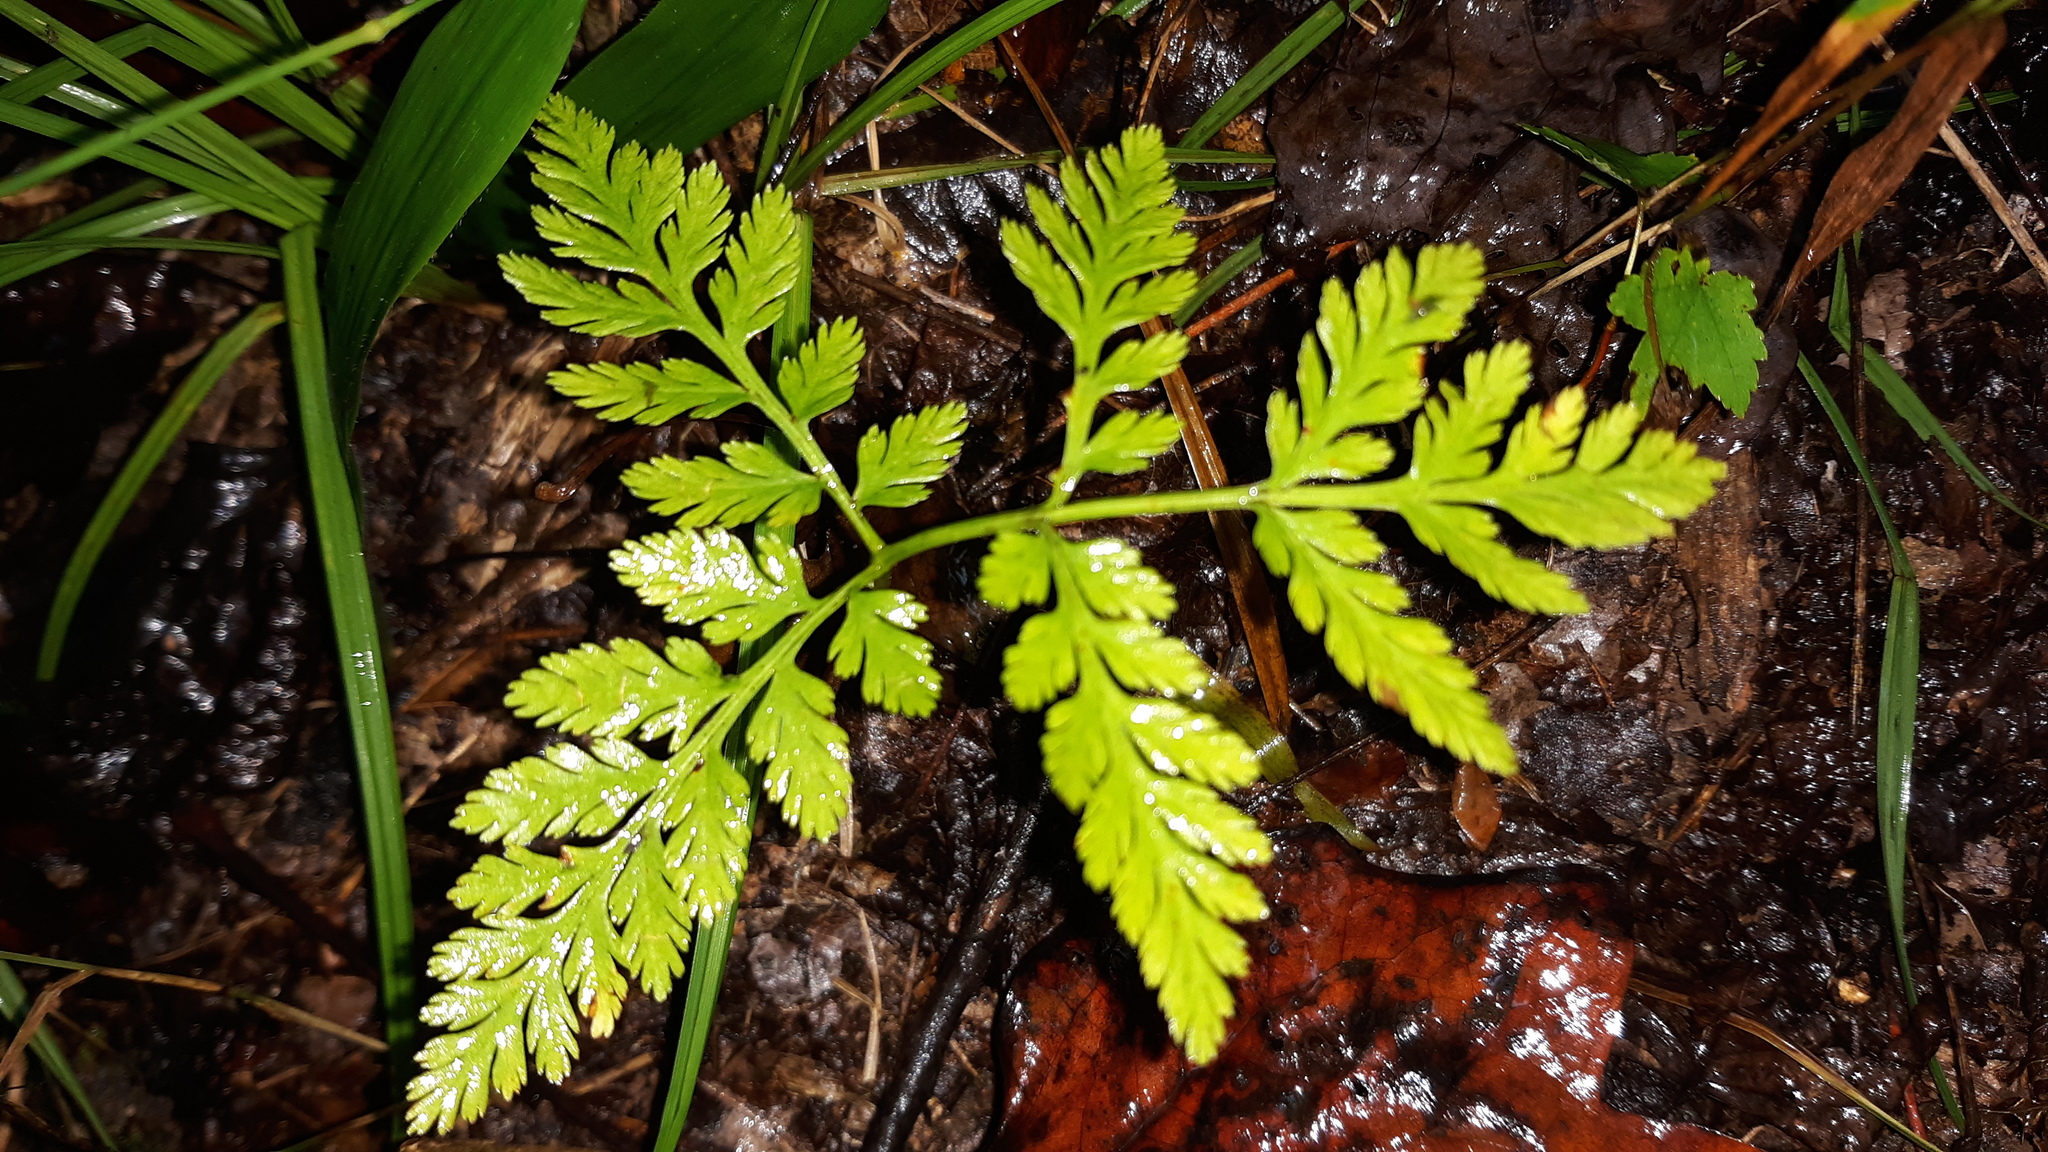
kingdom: Plantae
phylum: Tracheophyta
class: Polypodiopsida
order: Ophioglossales
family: Ophioglossaceae
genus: Botrypus
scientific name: Botrypus virginianus
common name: Common grapefern
